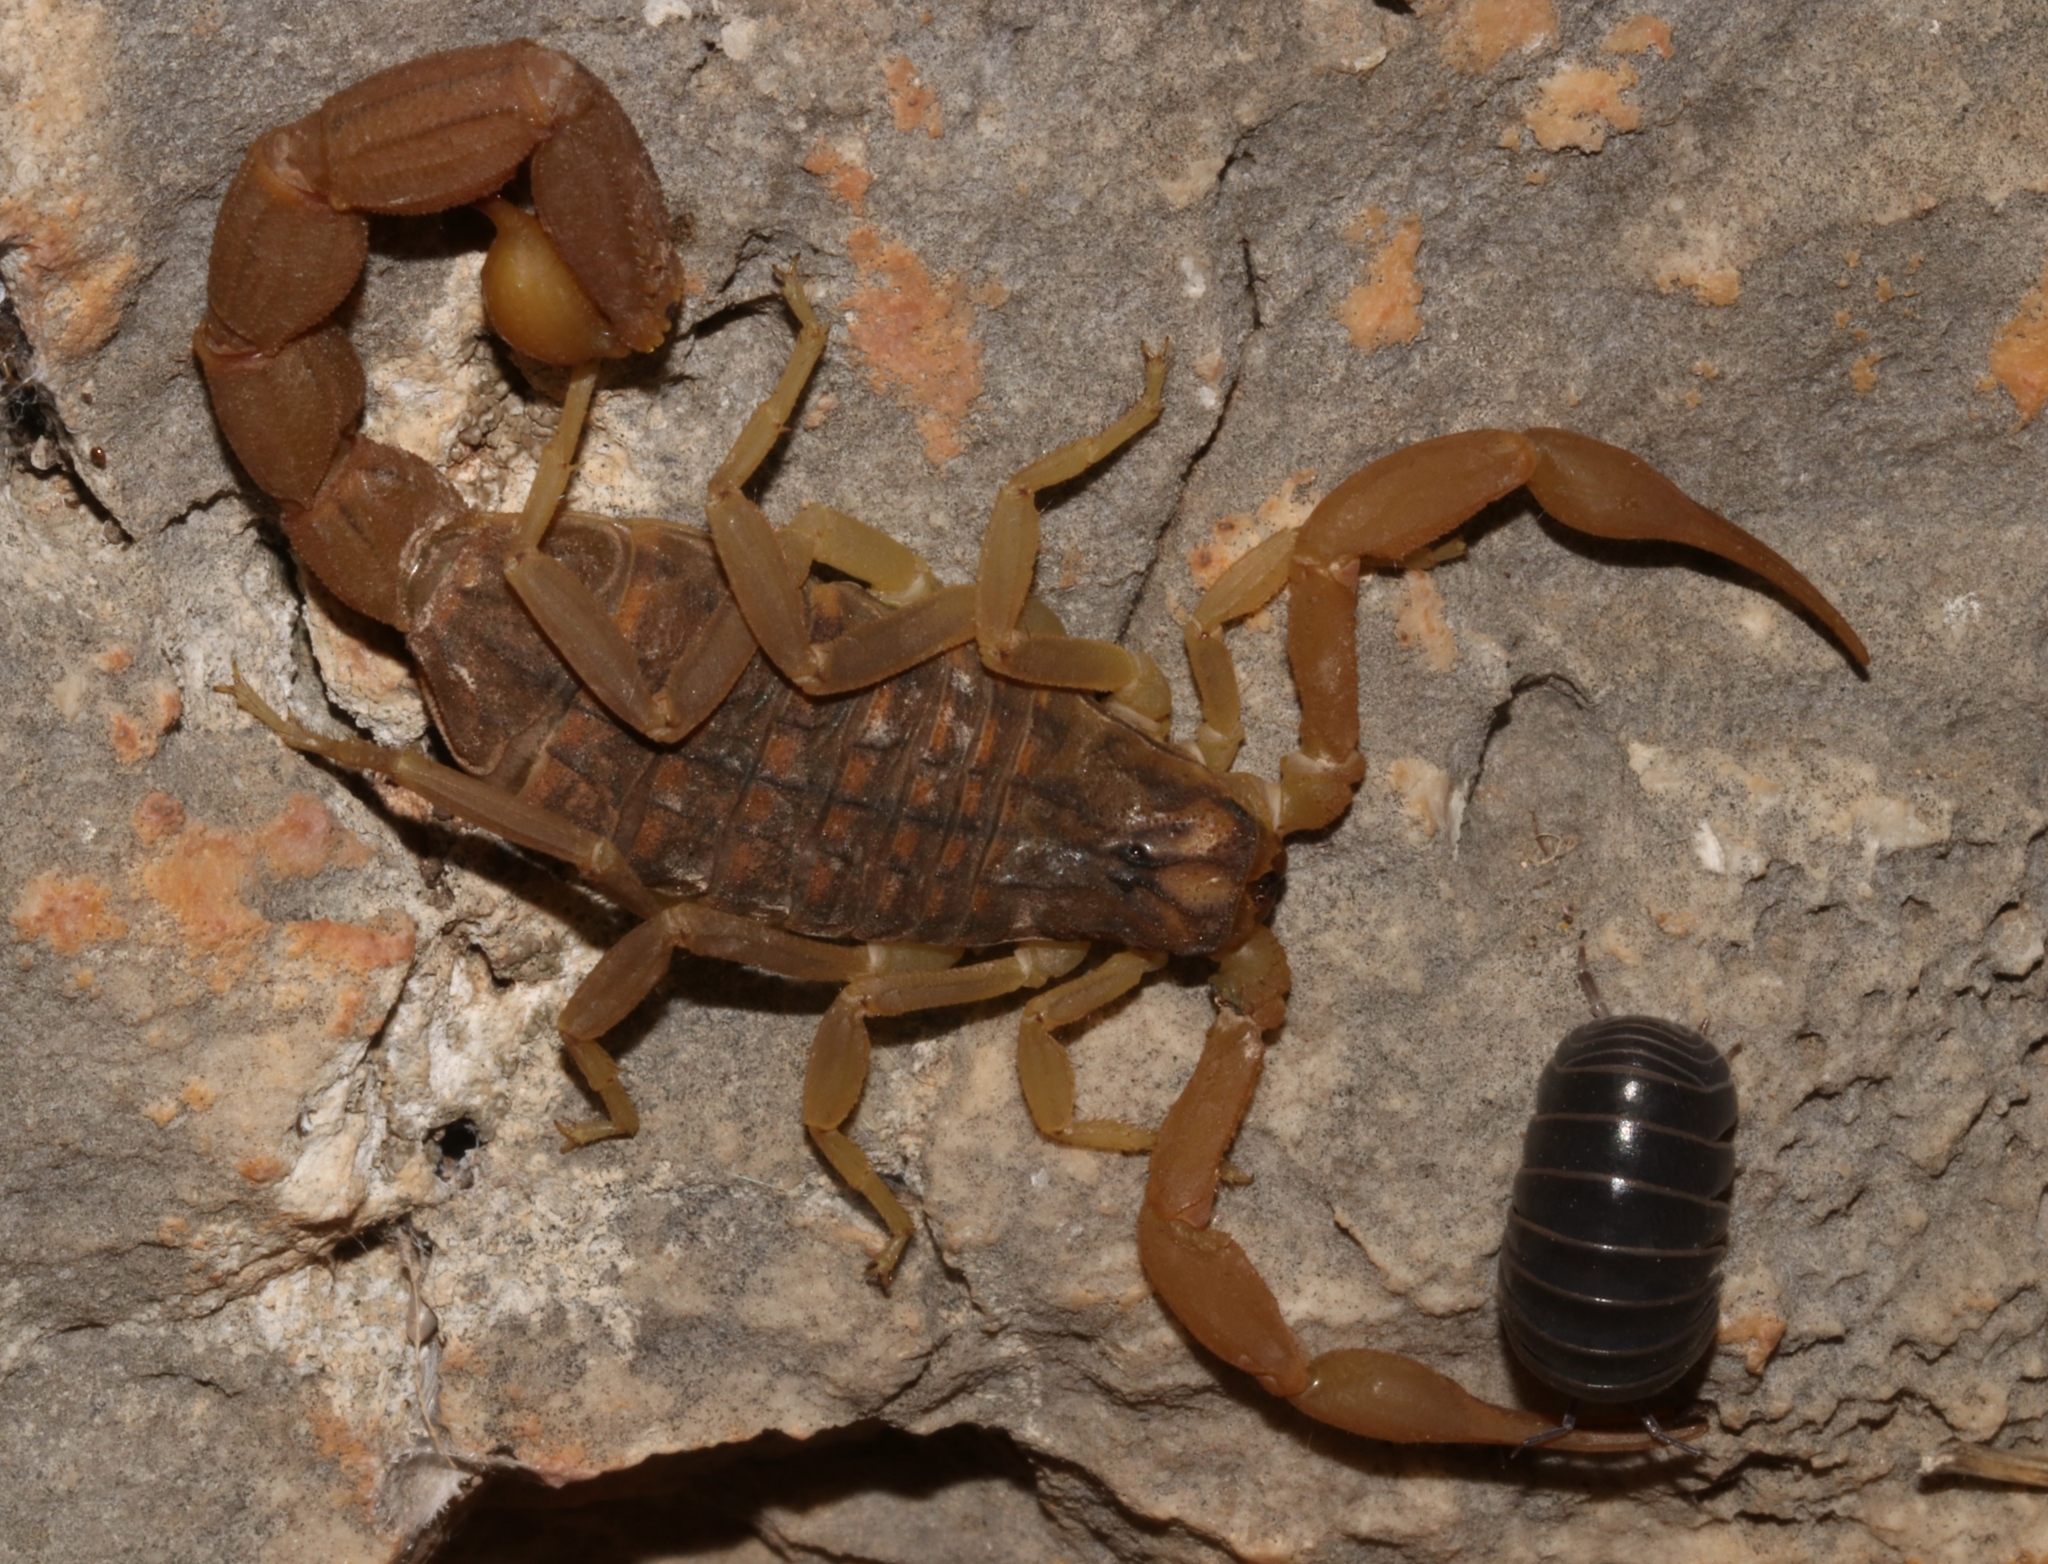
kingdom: Animalia
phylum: Arthropoda
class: Arachnida
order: Scorpiones
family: Buthidae
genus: Aegaeobuthus
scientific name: Aegaeobuthus gibbosus
